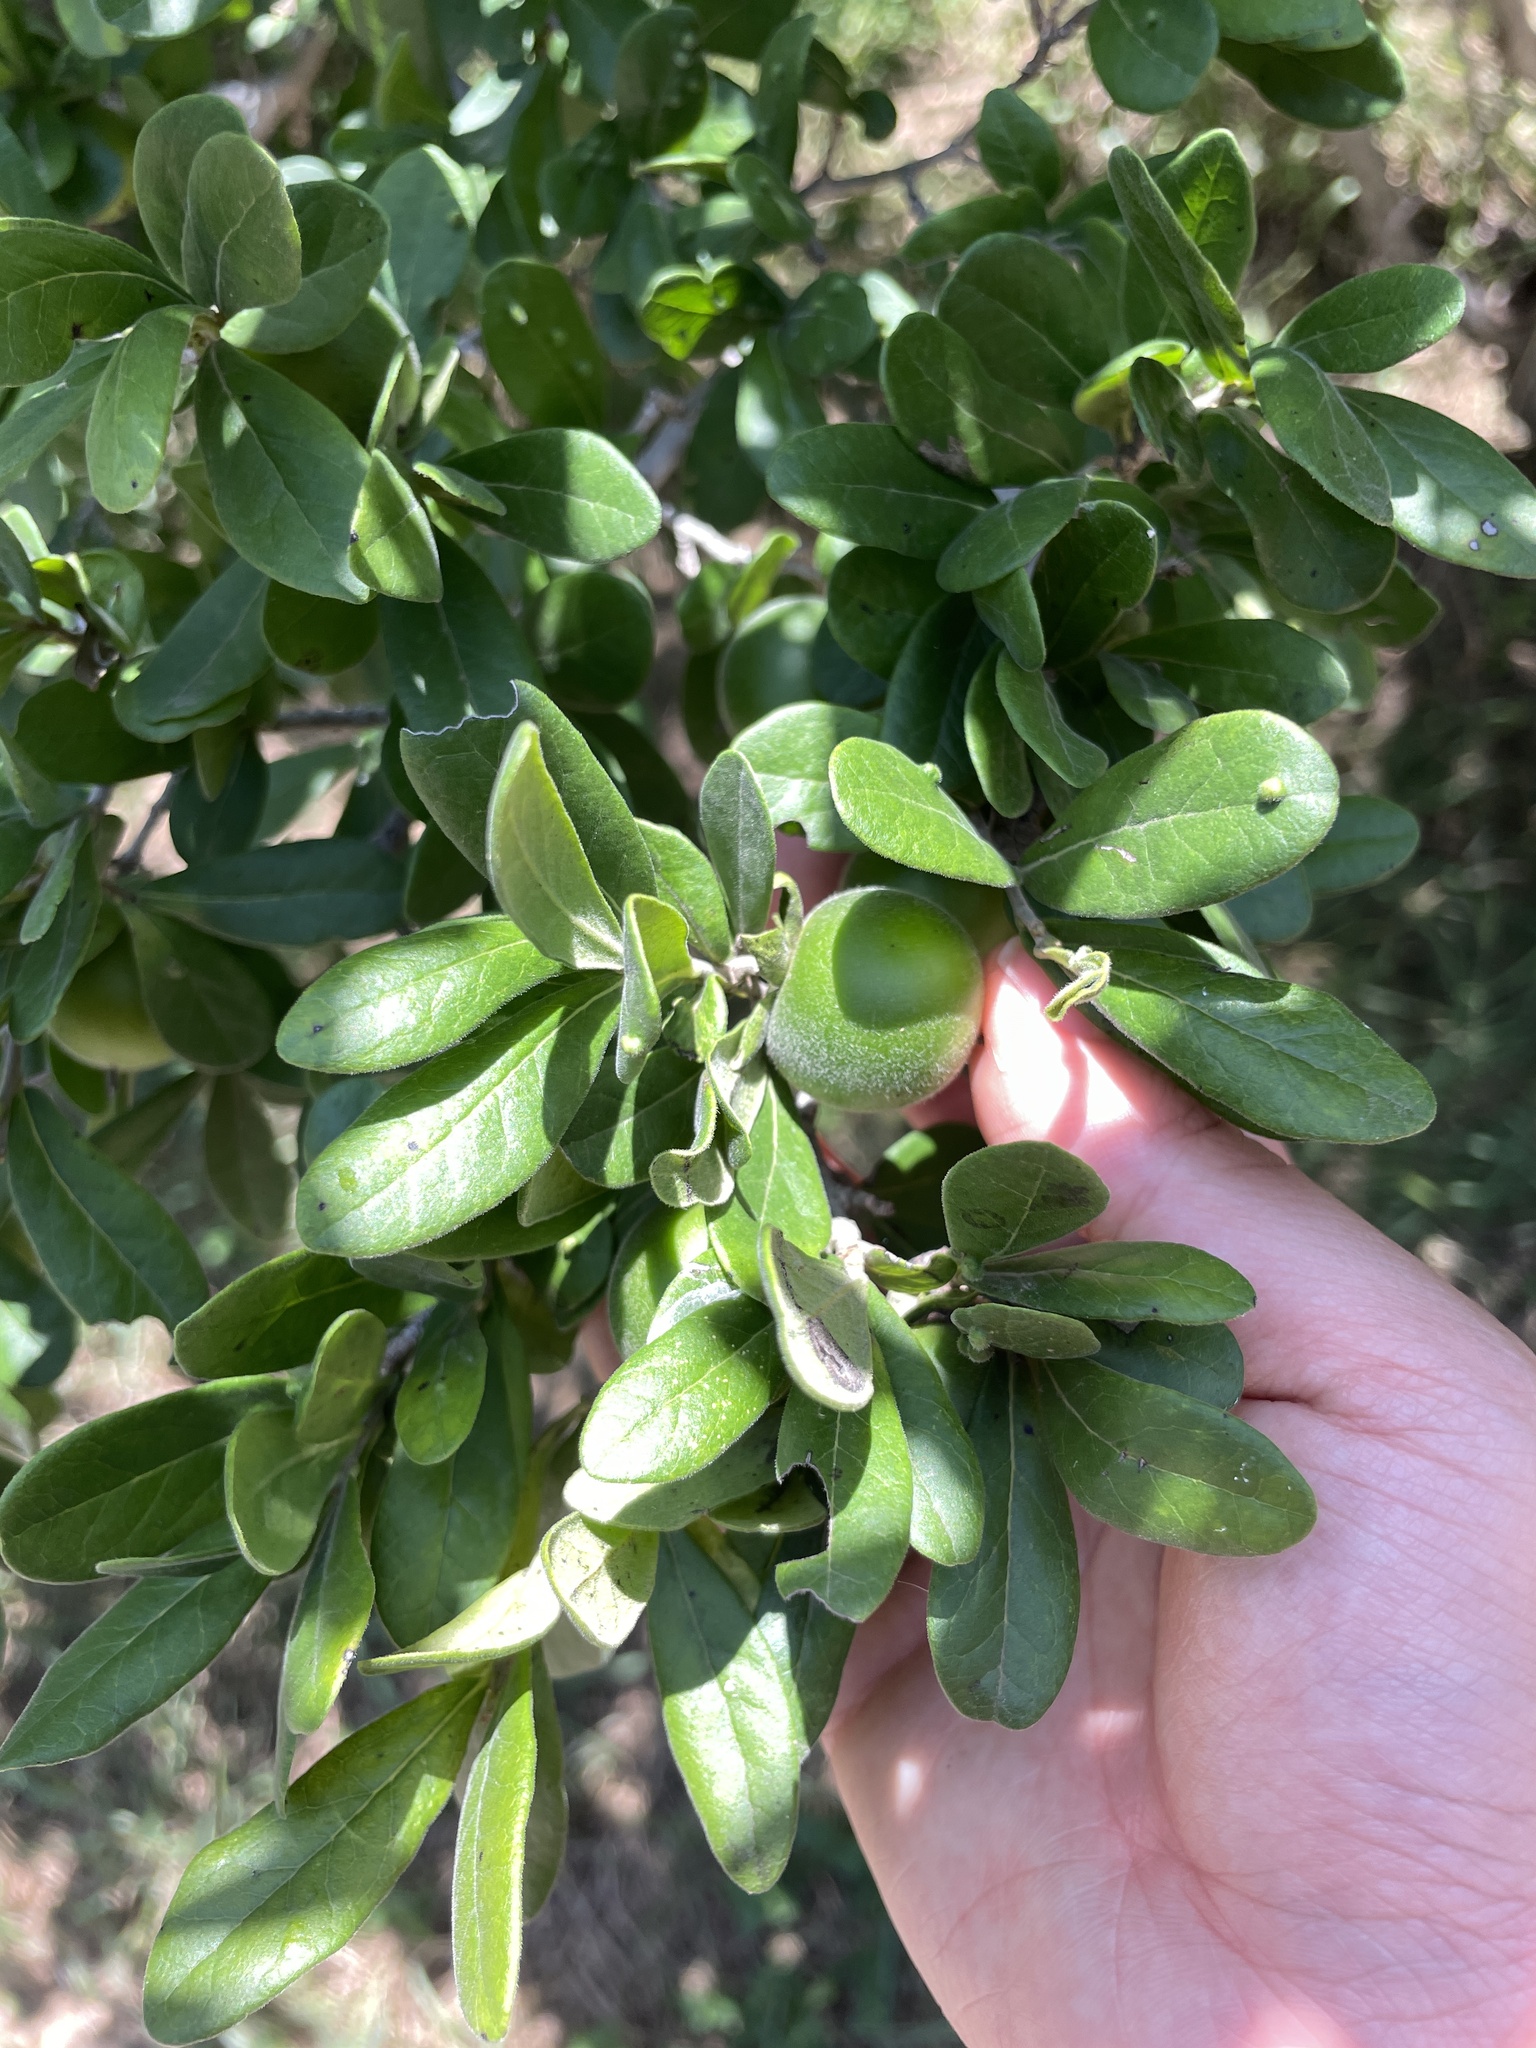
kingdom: Plantae
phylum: Tracheophyta
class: Magnoliopsida
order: Ericales
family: Ebenaceae
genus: Diospyros
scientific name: Diospyros texana
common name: Texas persimmon
